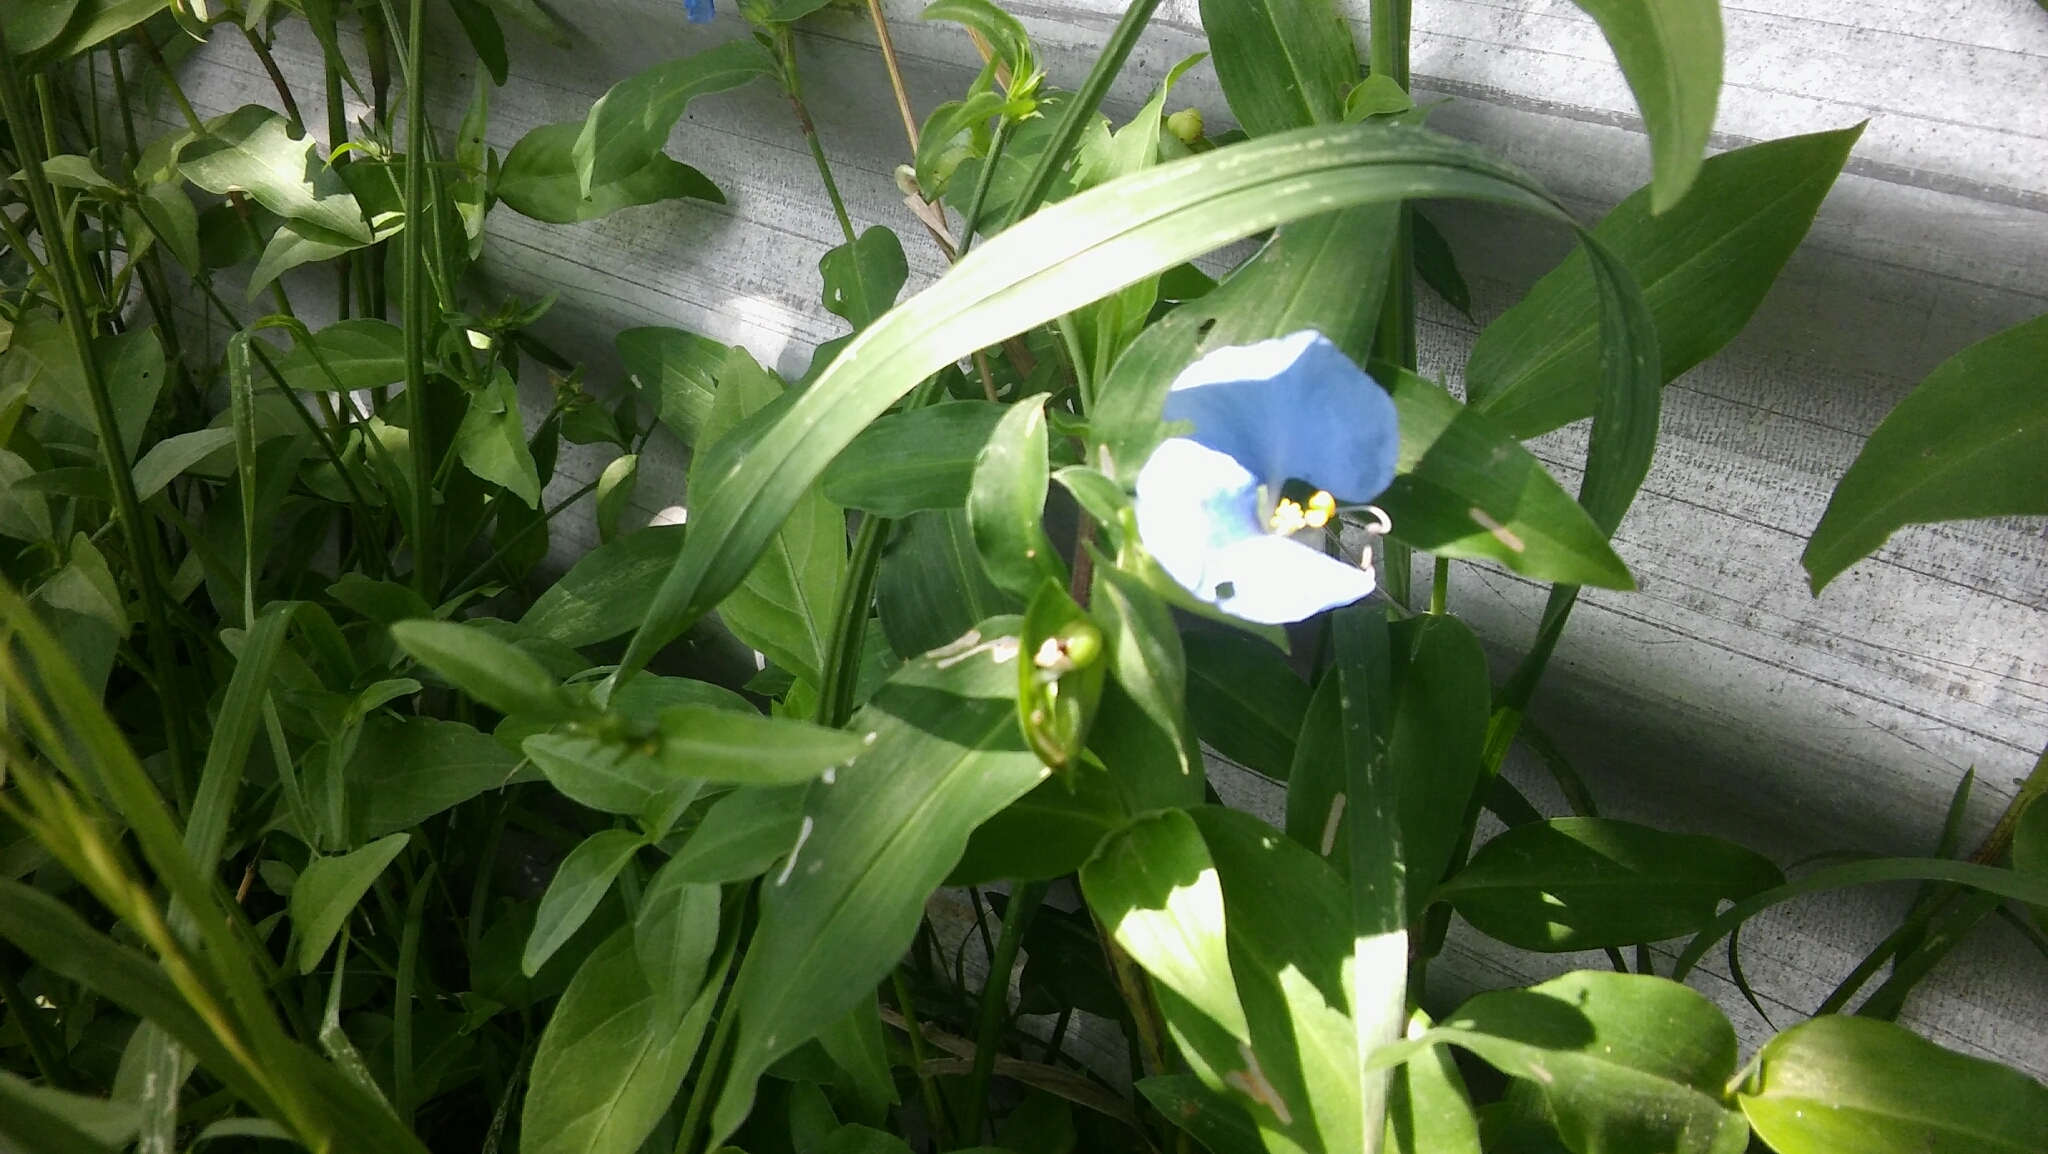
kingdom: Plantae
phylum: Tracheophyta
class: Liliopsida
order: Commelinales
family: Commelinaceae
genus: Commelina
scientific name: Commelina erecta
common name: Blousel blommetjie
